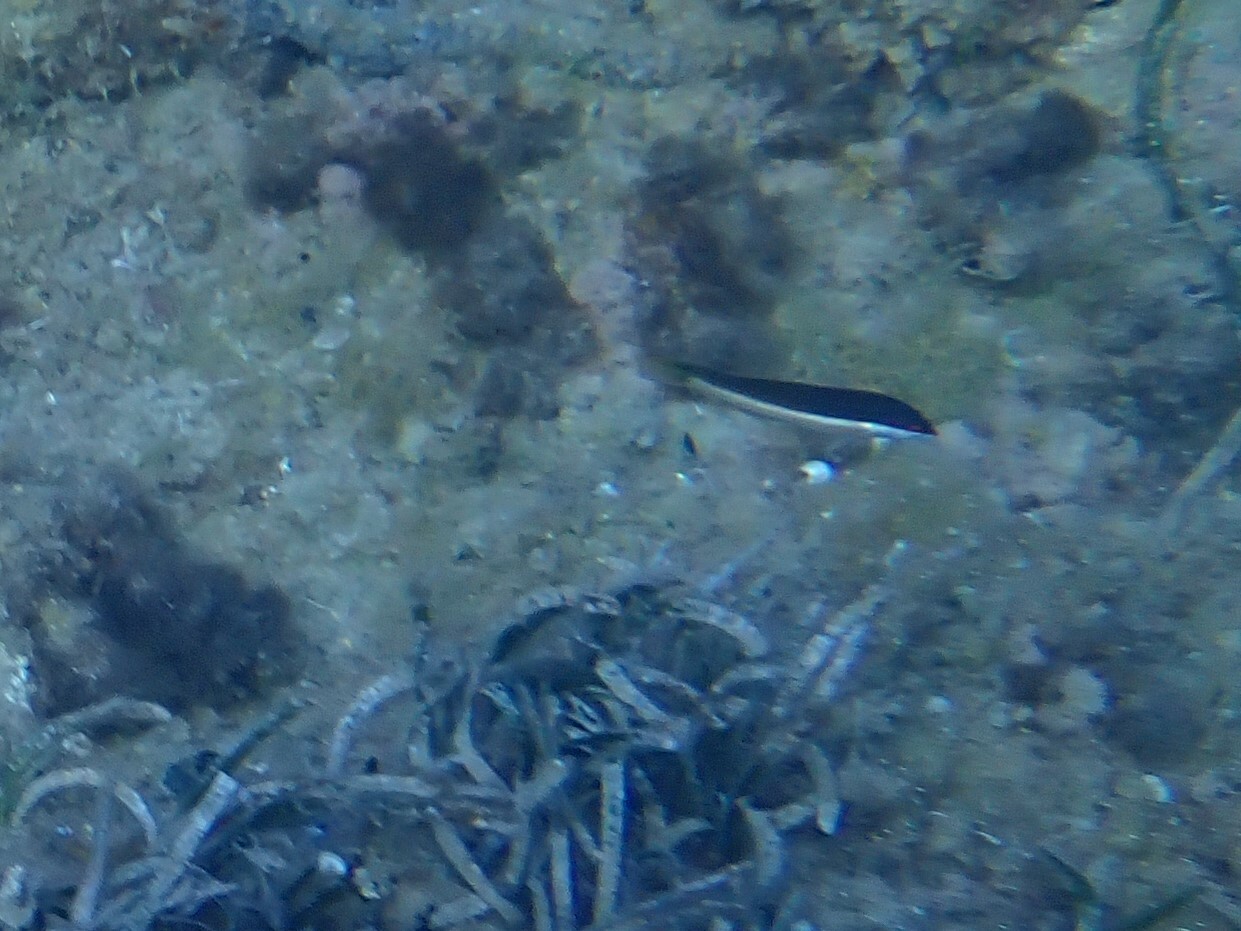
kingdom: Animalia
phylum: Chordata
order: Perciformes
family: Labridae
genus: Coris
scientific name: Coris julis
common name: Rainbow wrasse
